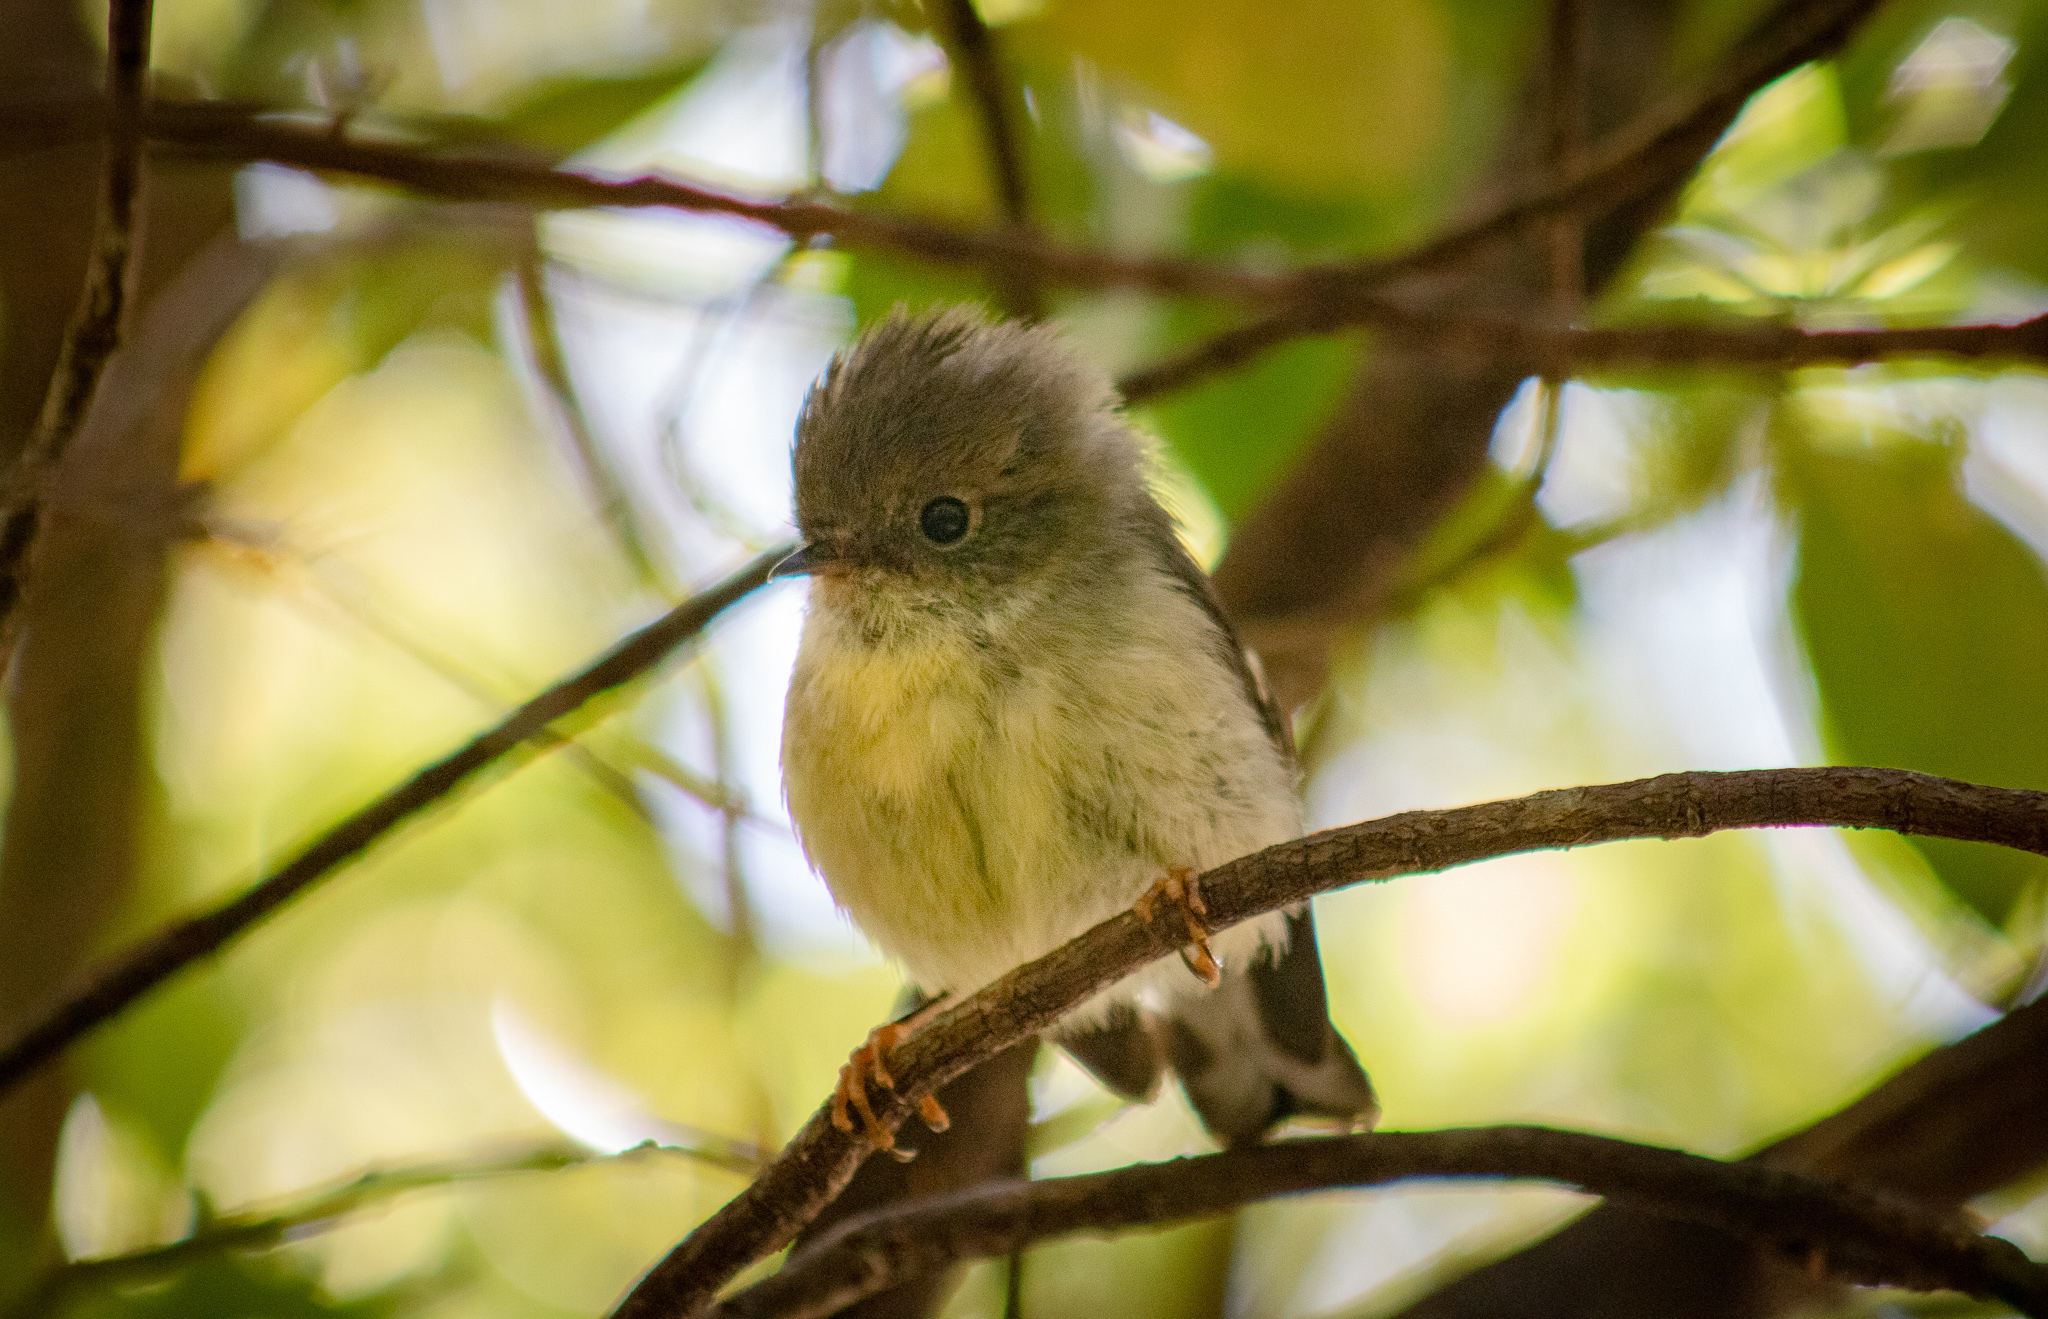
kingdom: Animalia
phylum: Chordata
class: Aves
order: Passeriformes
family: Petroicidae
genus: Petroica
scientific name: Petroica macrocephala
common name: Tomtit
